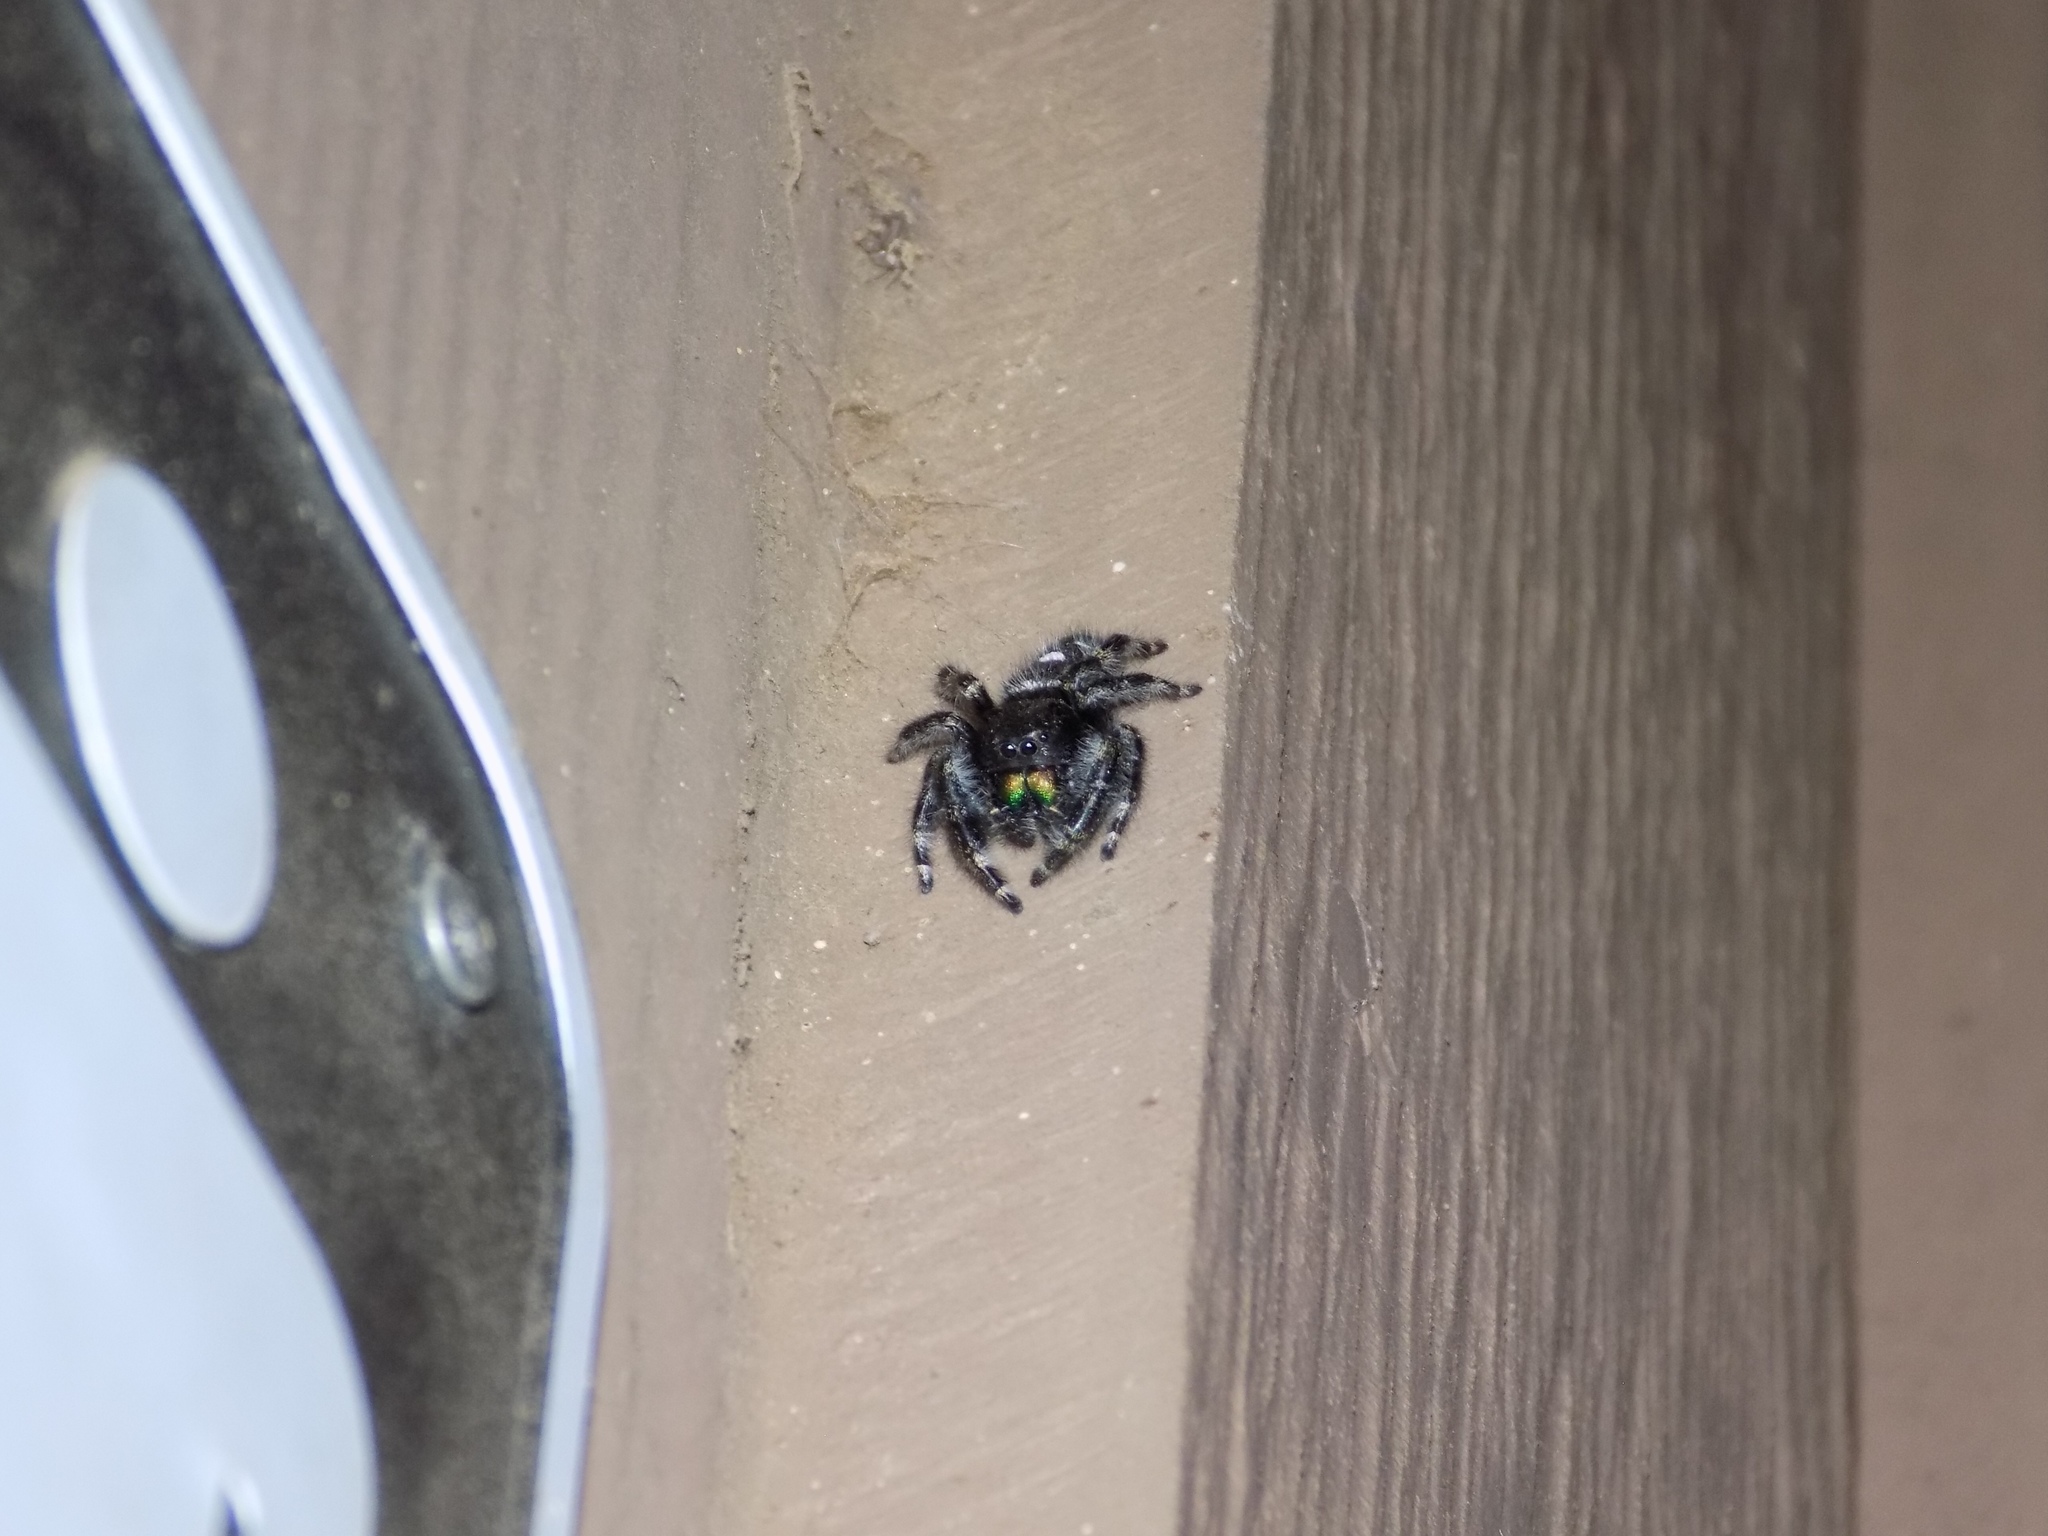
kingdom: Animalia
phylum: Arthropoda
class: Arachnida
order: Araneae
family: Salticidae
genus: Phidippus
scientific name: Phidippus audax
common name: Bold jumper
